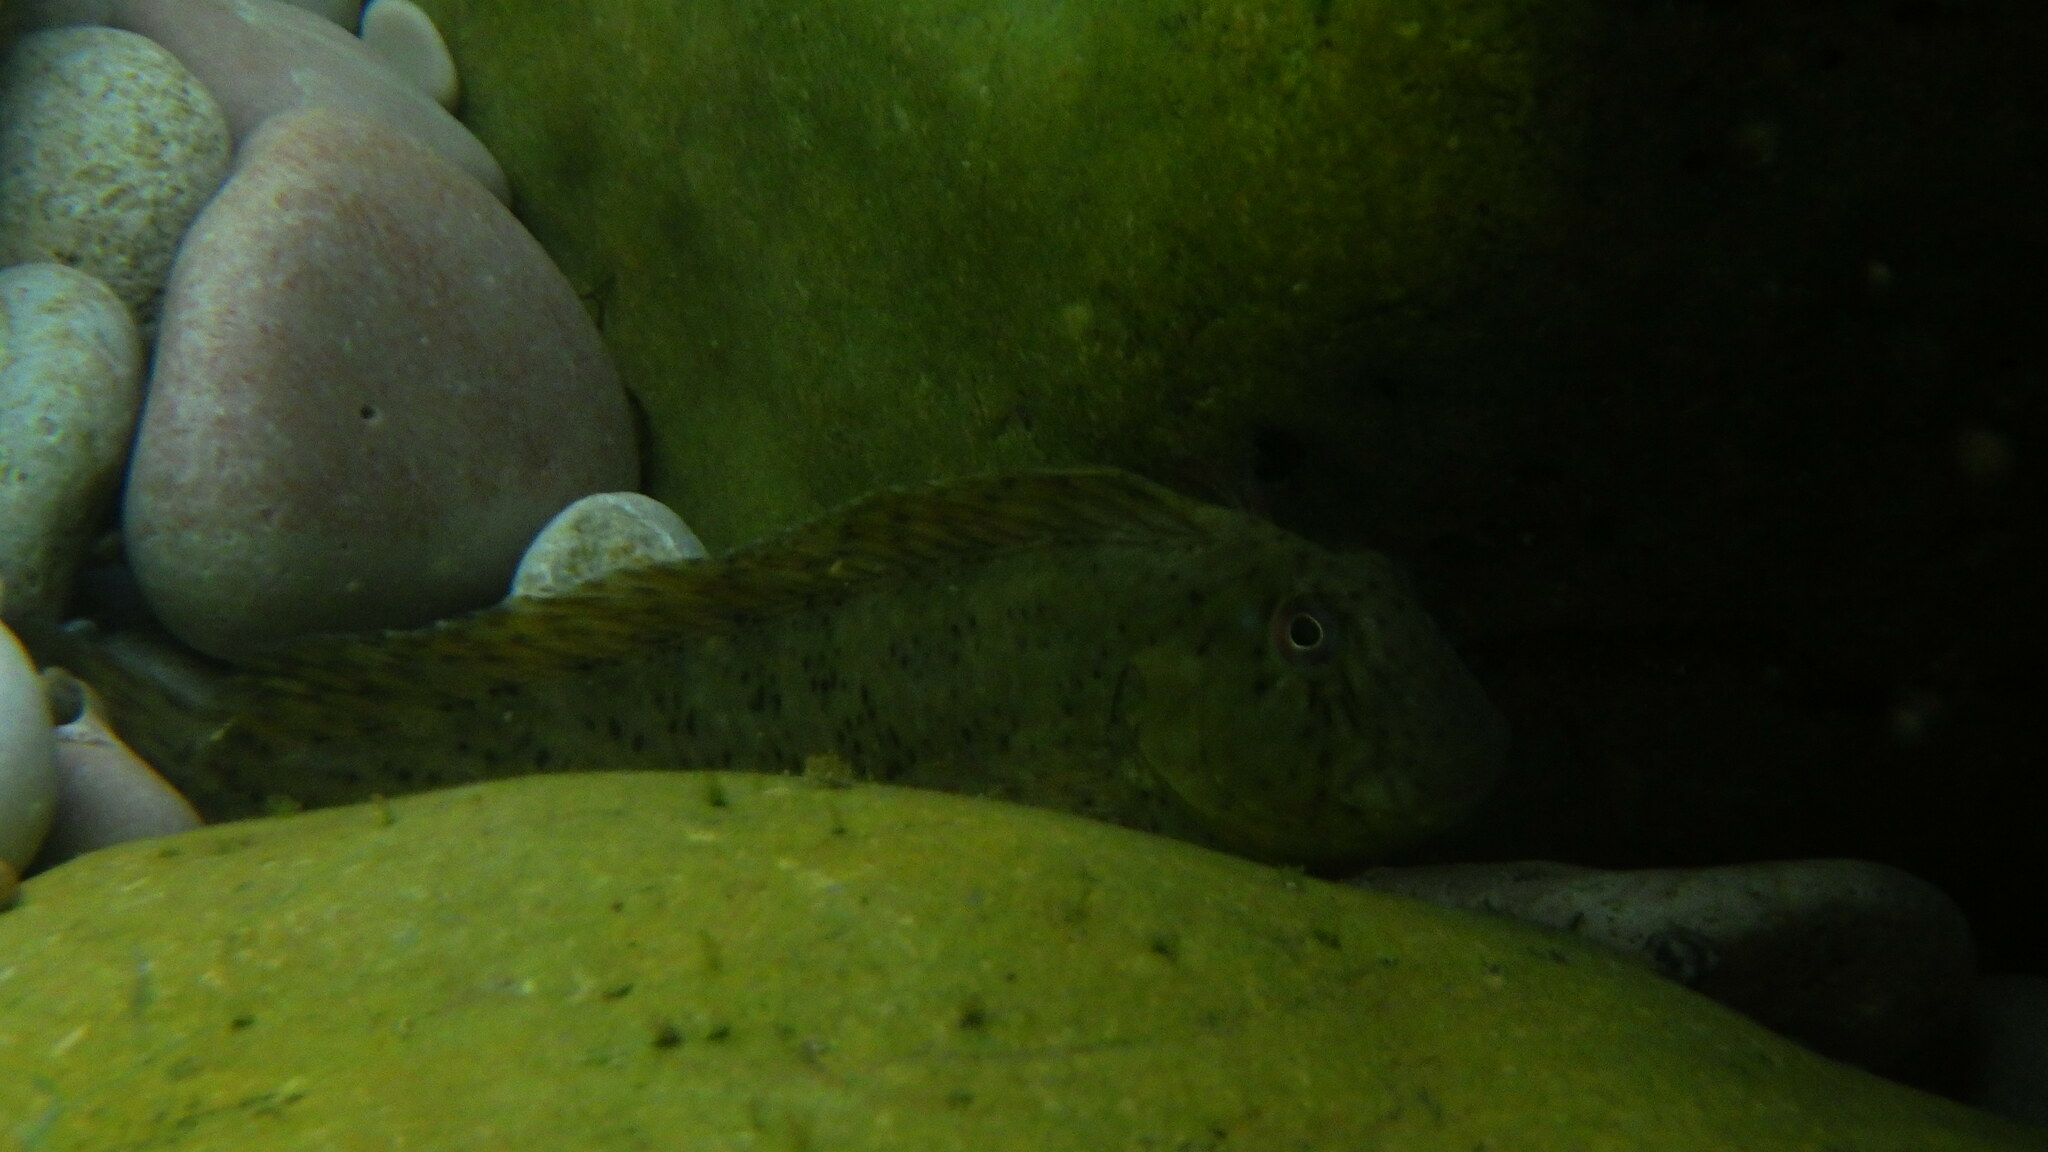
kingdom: Animalia
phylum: Chordata
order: Perciformes
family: Blenniidae
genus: Parablennius
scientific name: Parablennius sanguinolentus
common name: Black sea blenny
